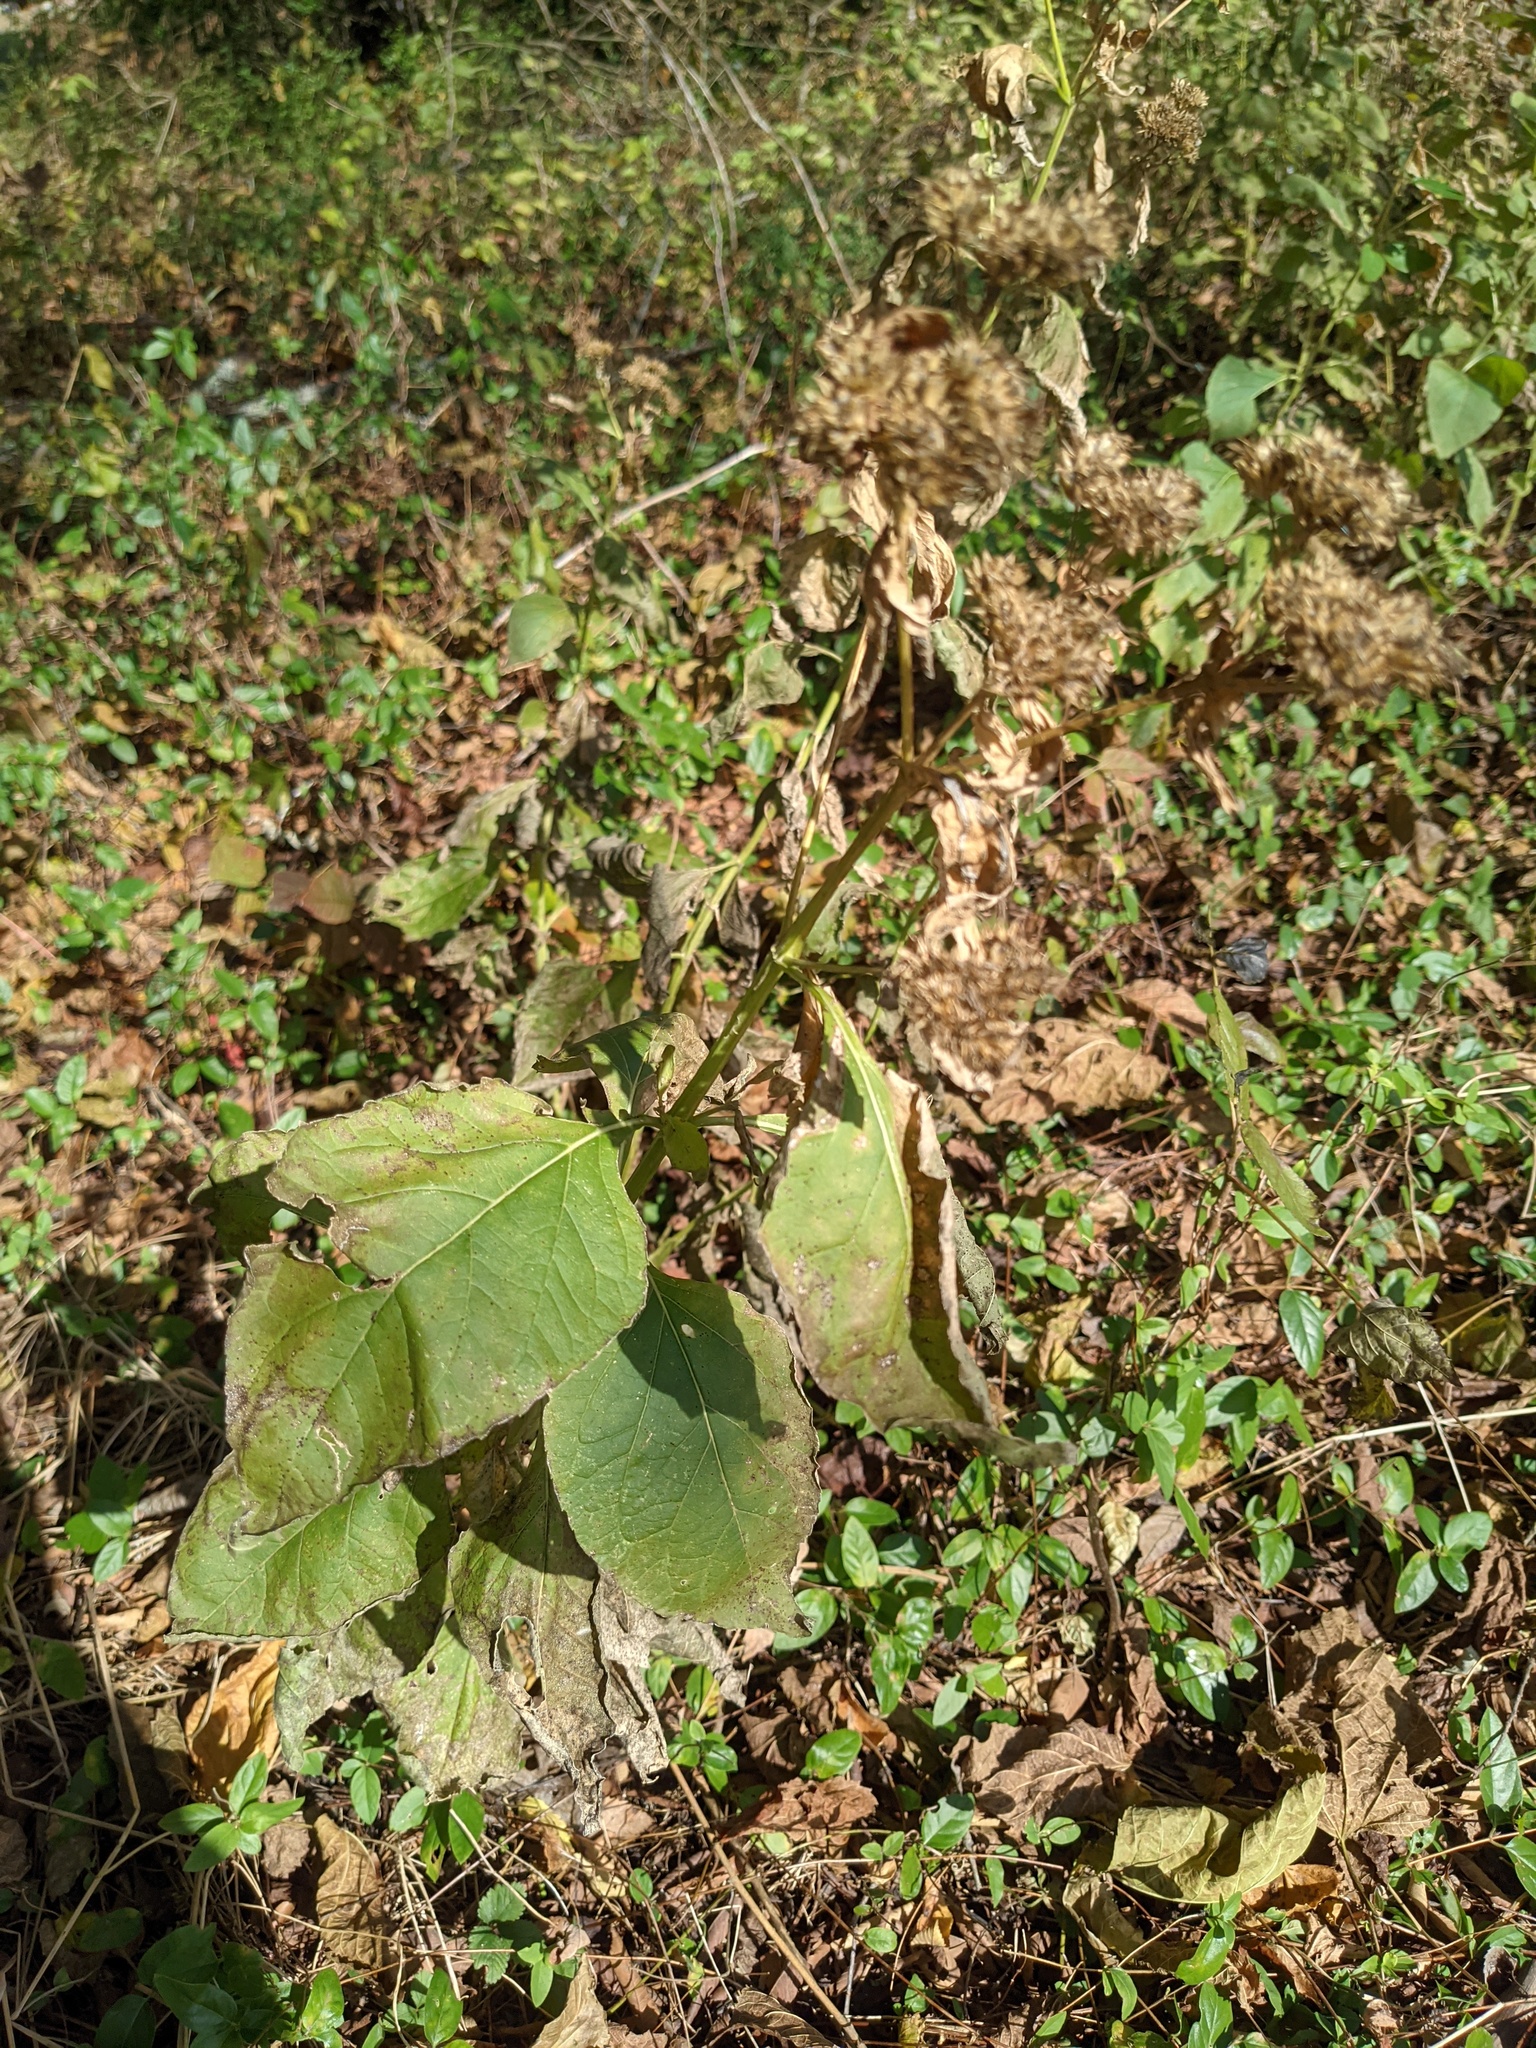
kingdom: Plantae
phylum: Tracheophyta
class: Magnoliopsida
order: Asterales
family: Asteraceae
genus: Verbesina
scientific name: Verbesina occidentalis
